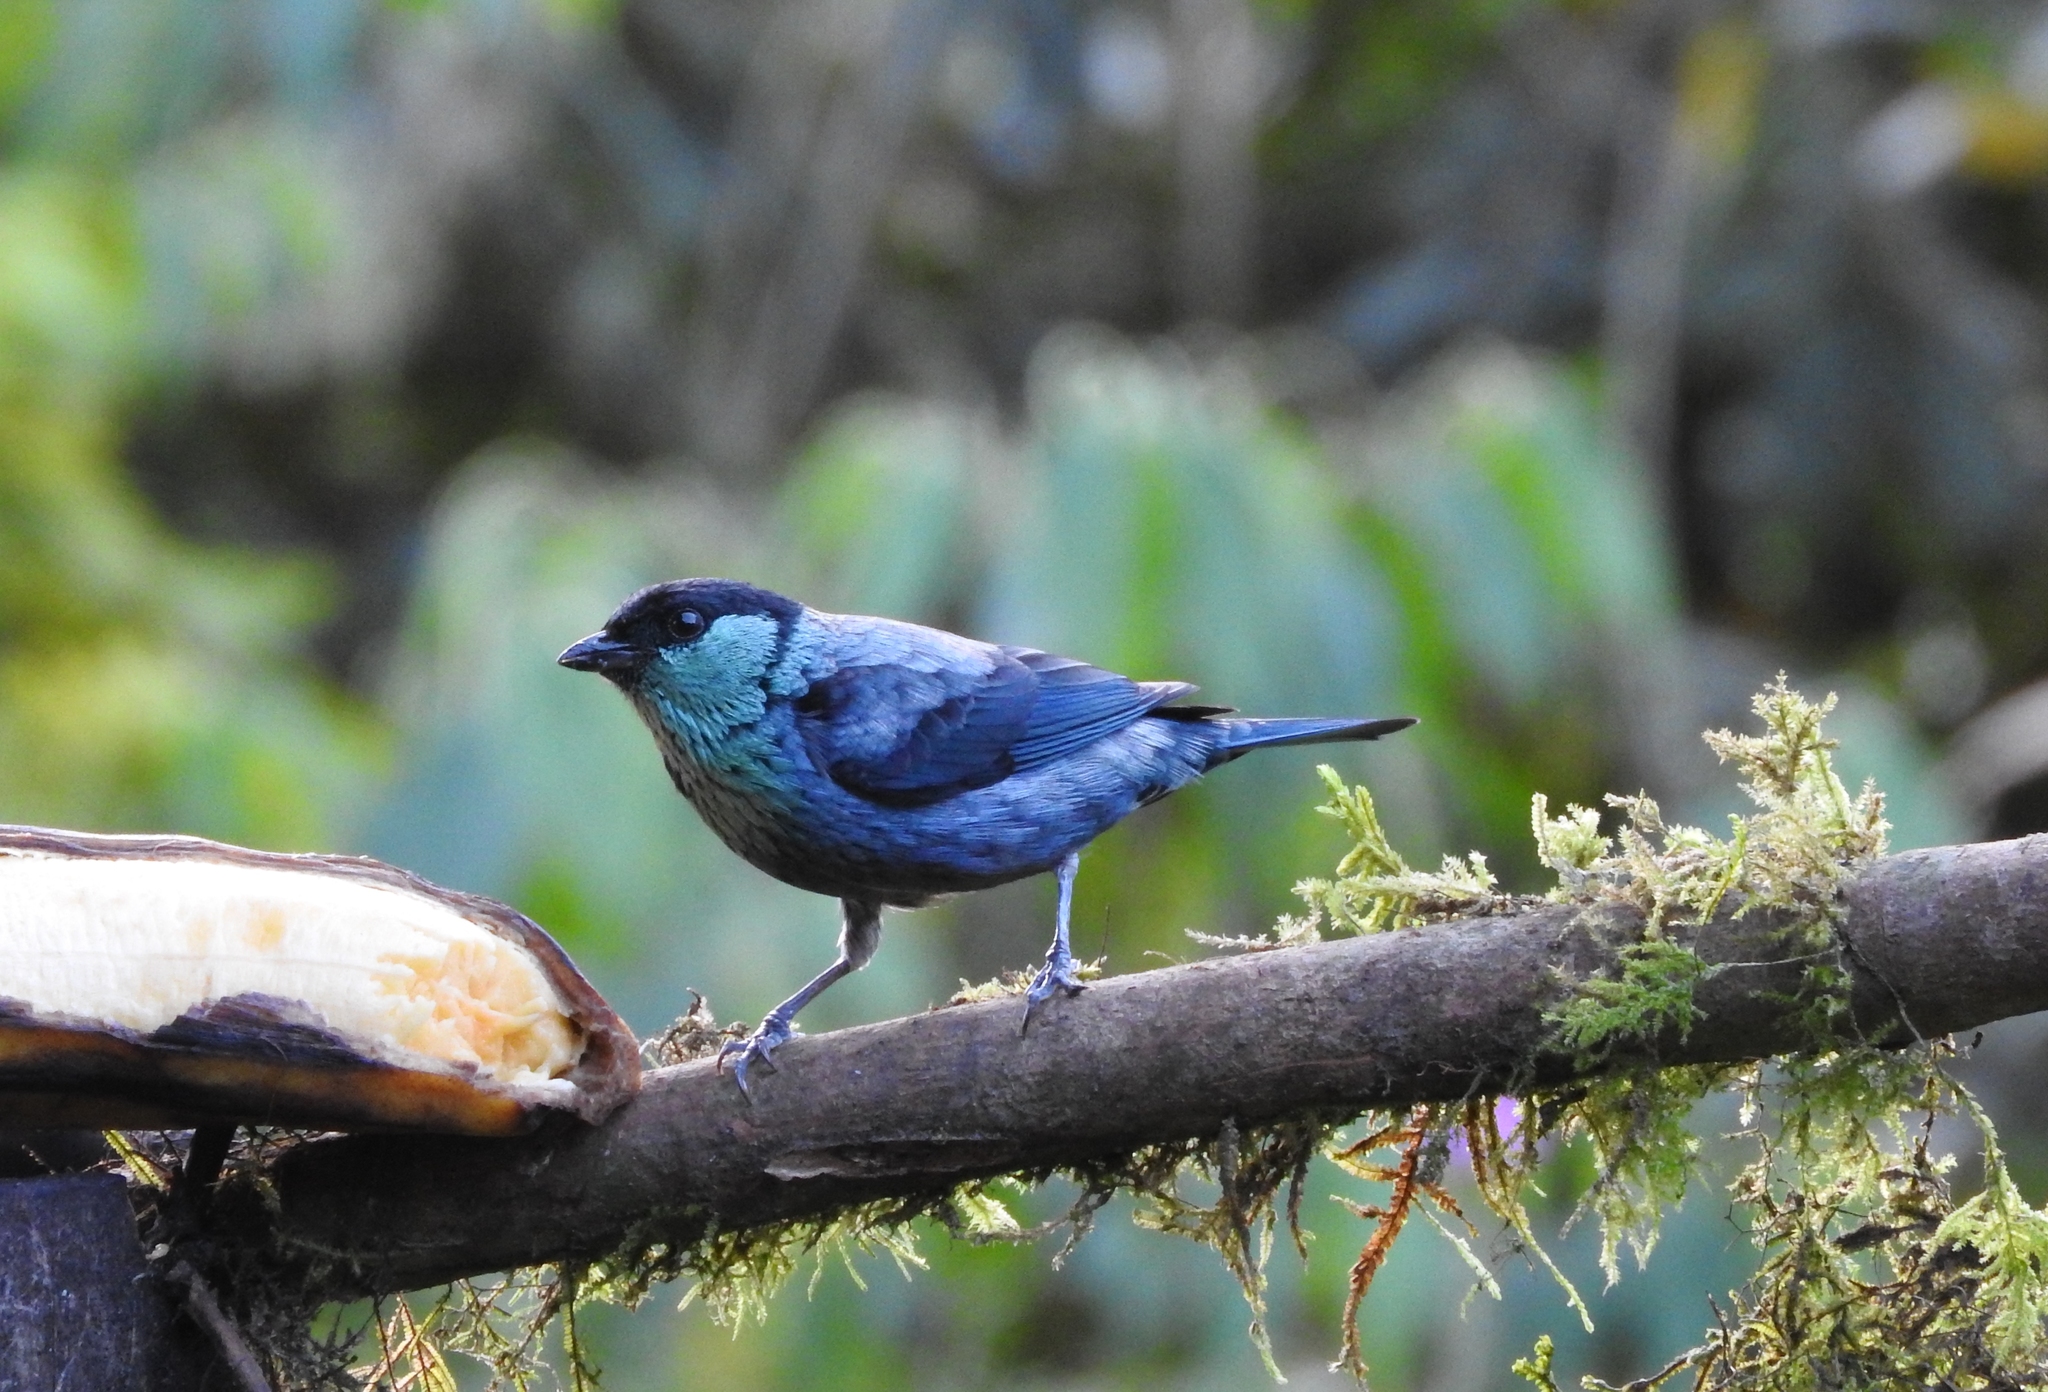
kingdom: Animalia
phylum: Chordata
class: Aves
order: Passeriformes
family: Thraupidae
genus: Stilpnia
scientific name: Stilpnia heinei
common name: Black-capped tanager
